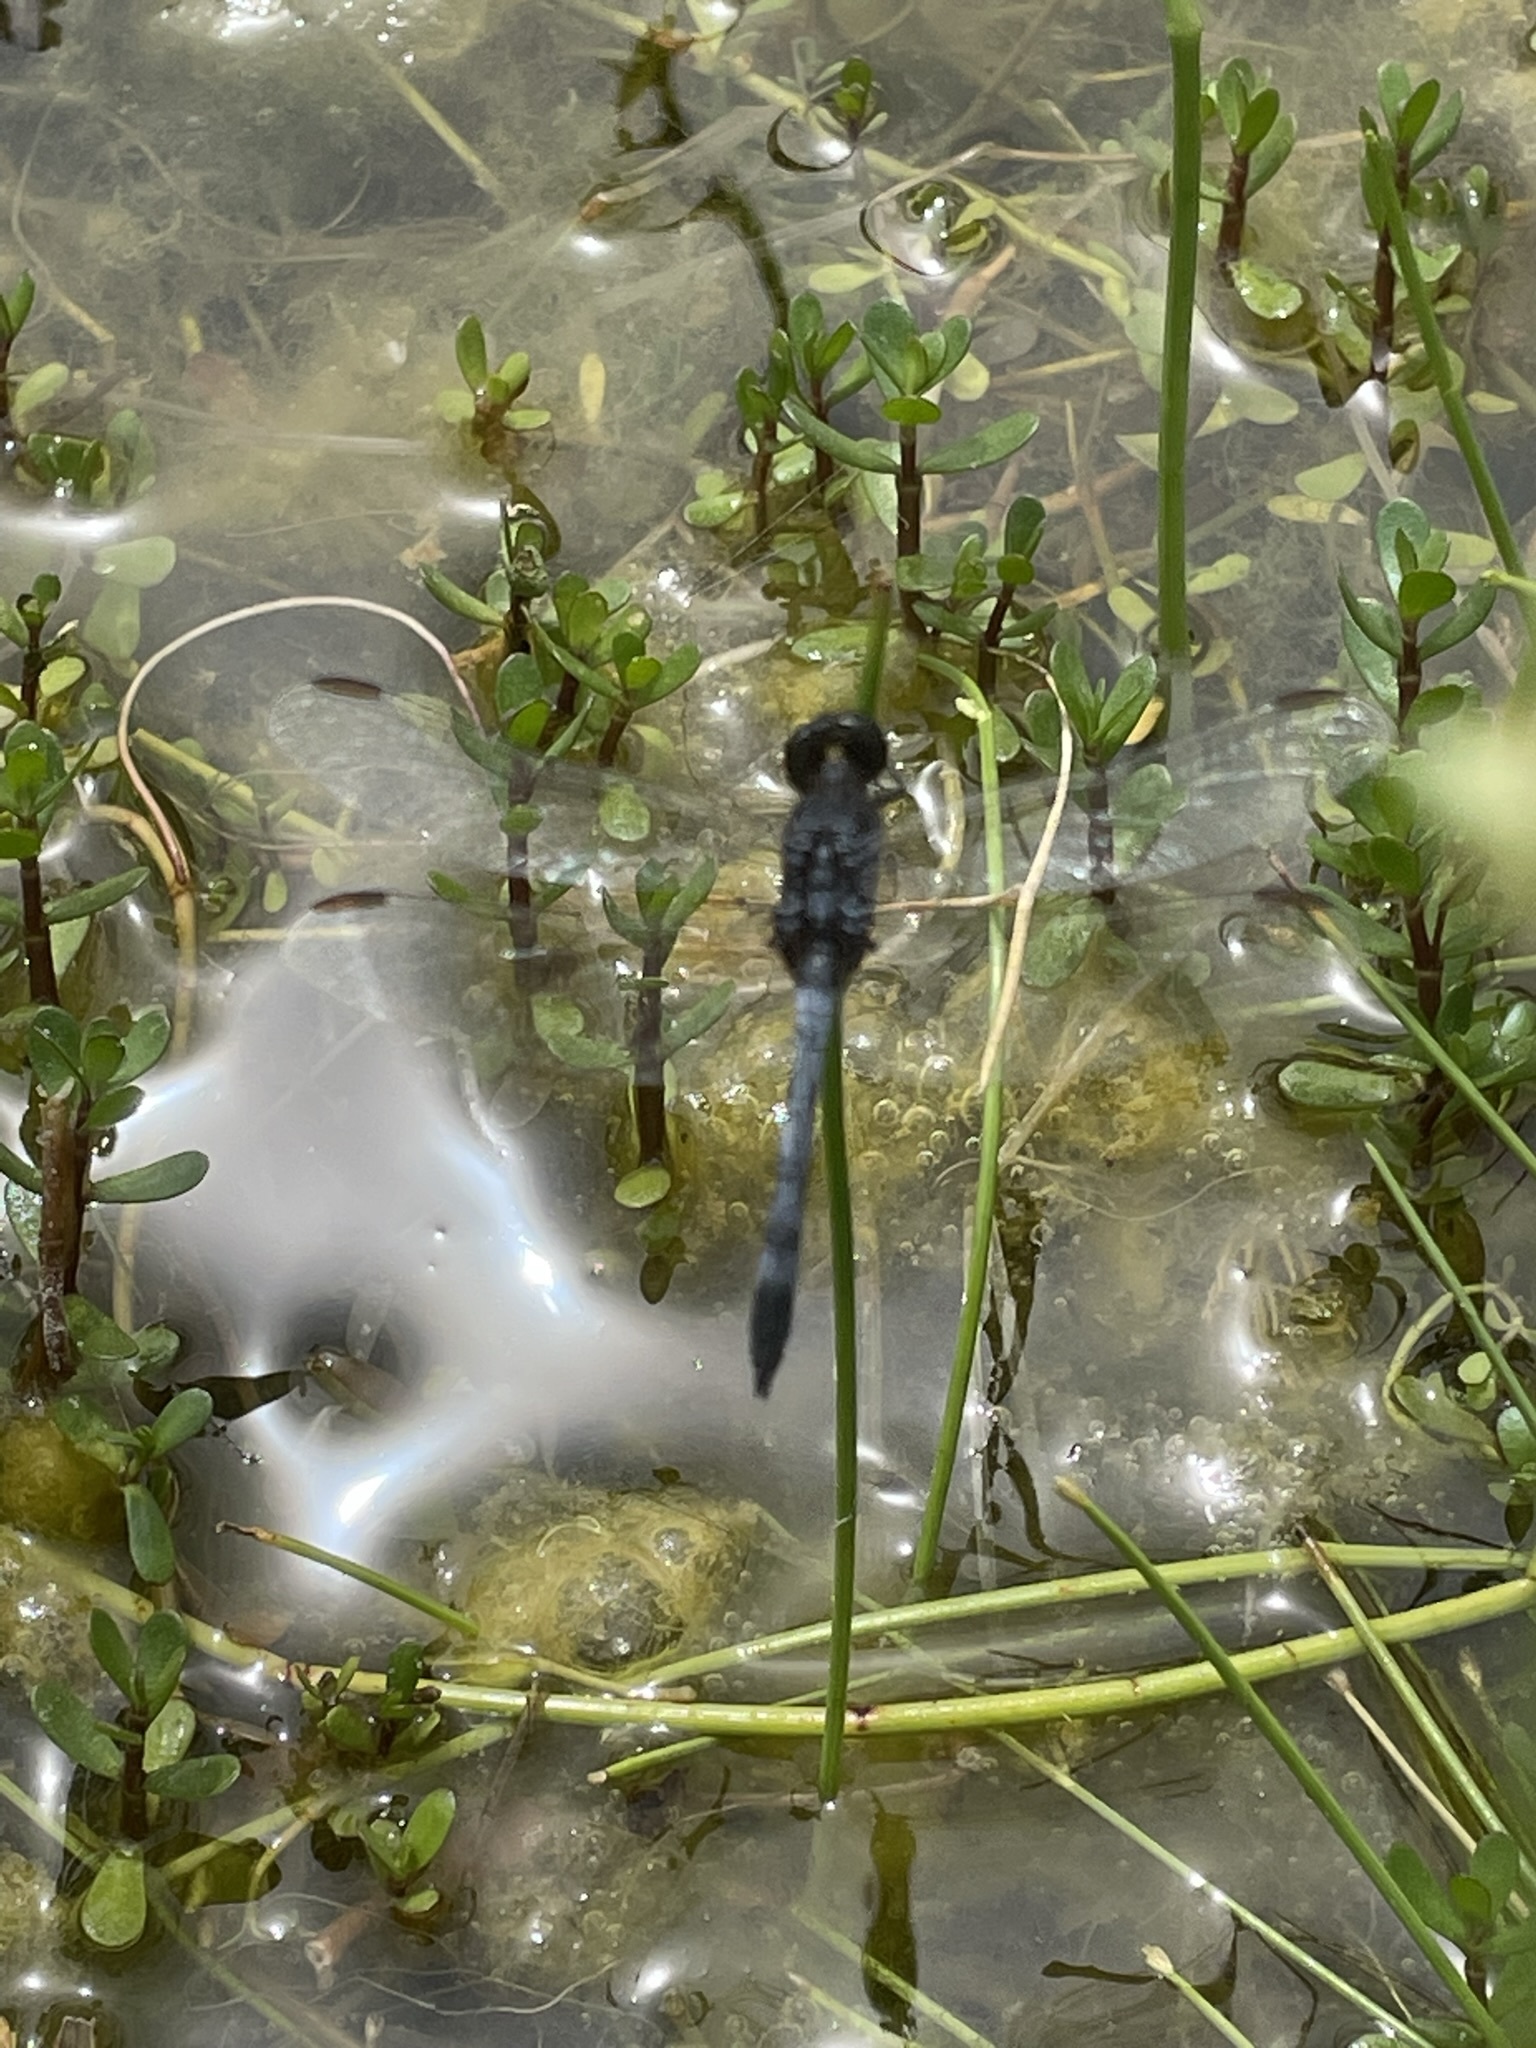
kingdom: Animalia
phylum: Arthropoda
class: Insecta
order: Odonata
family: Libellulidae
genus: Erythrodiplax
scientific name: Erythrodiplax cleopatra
